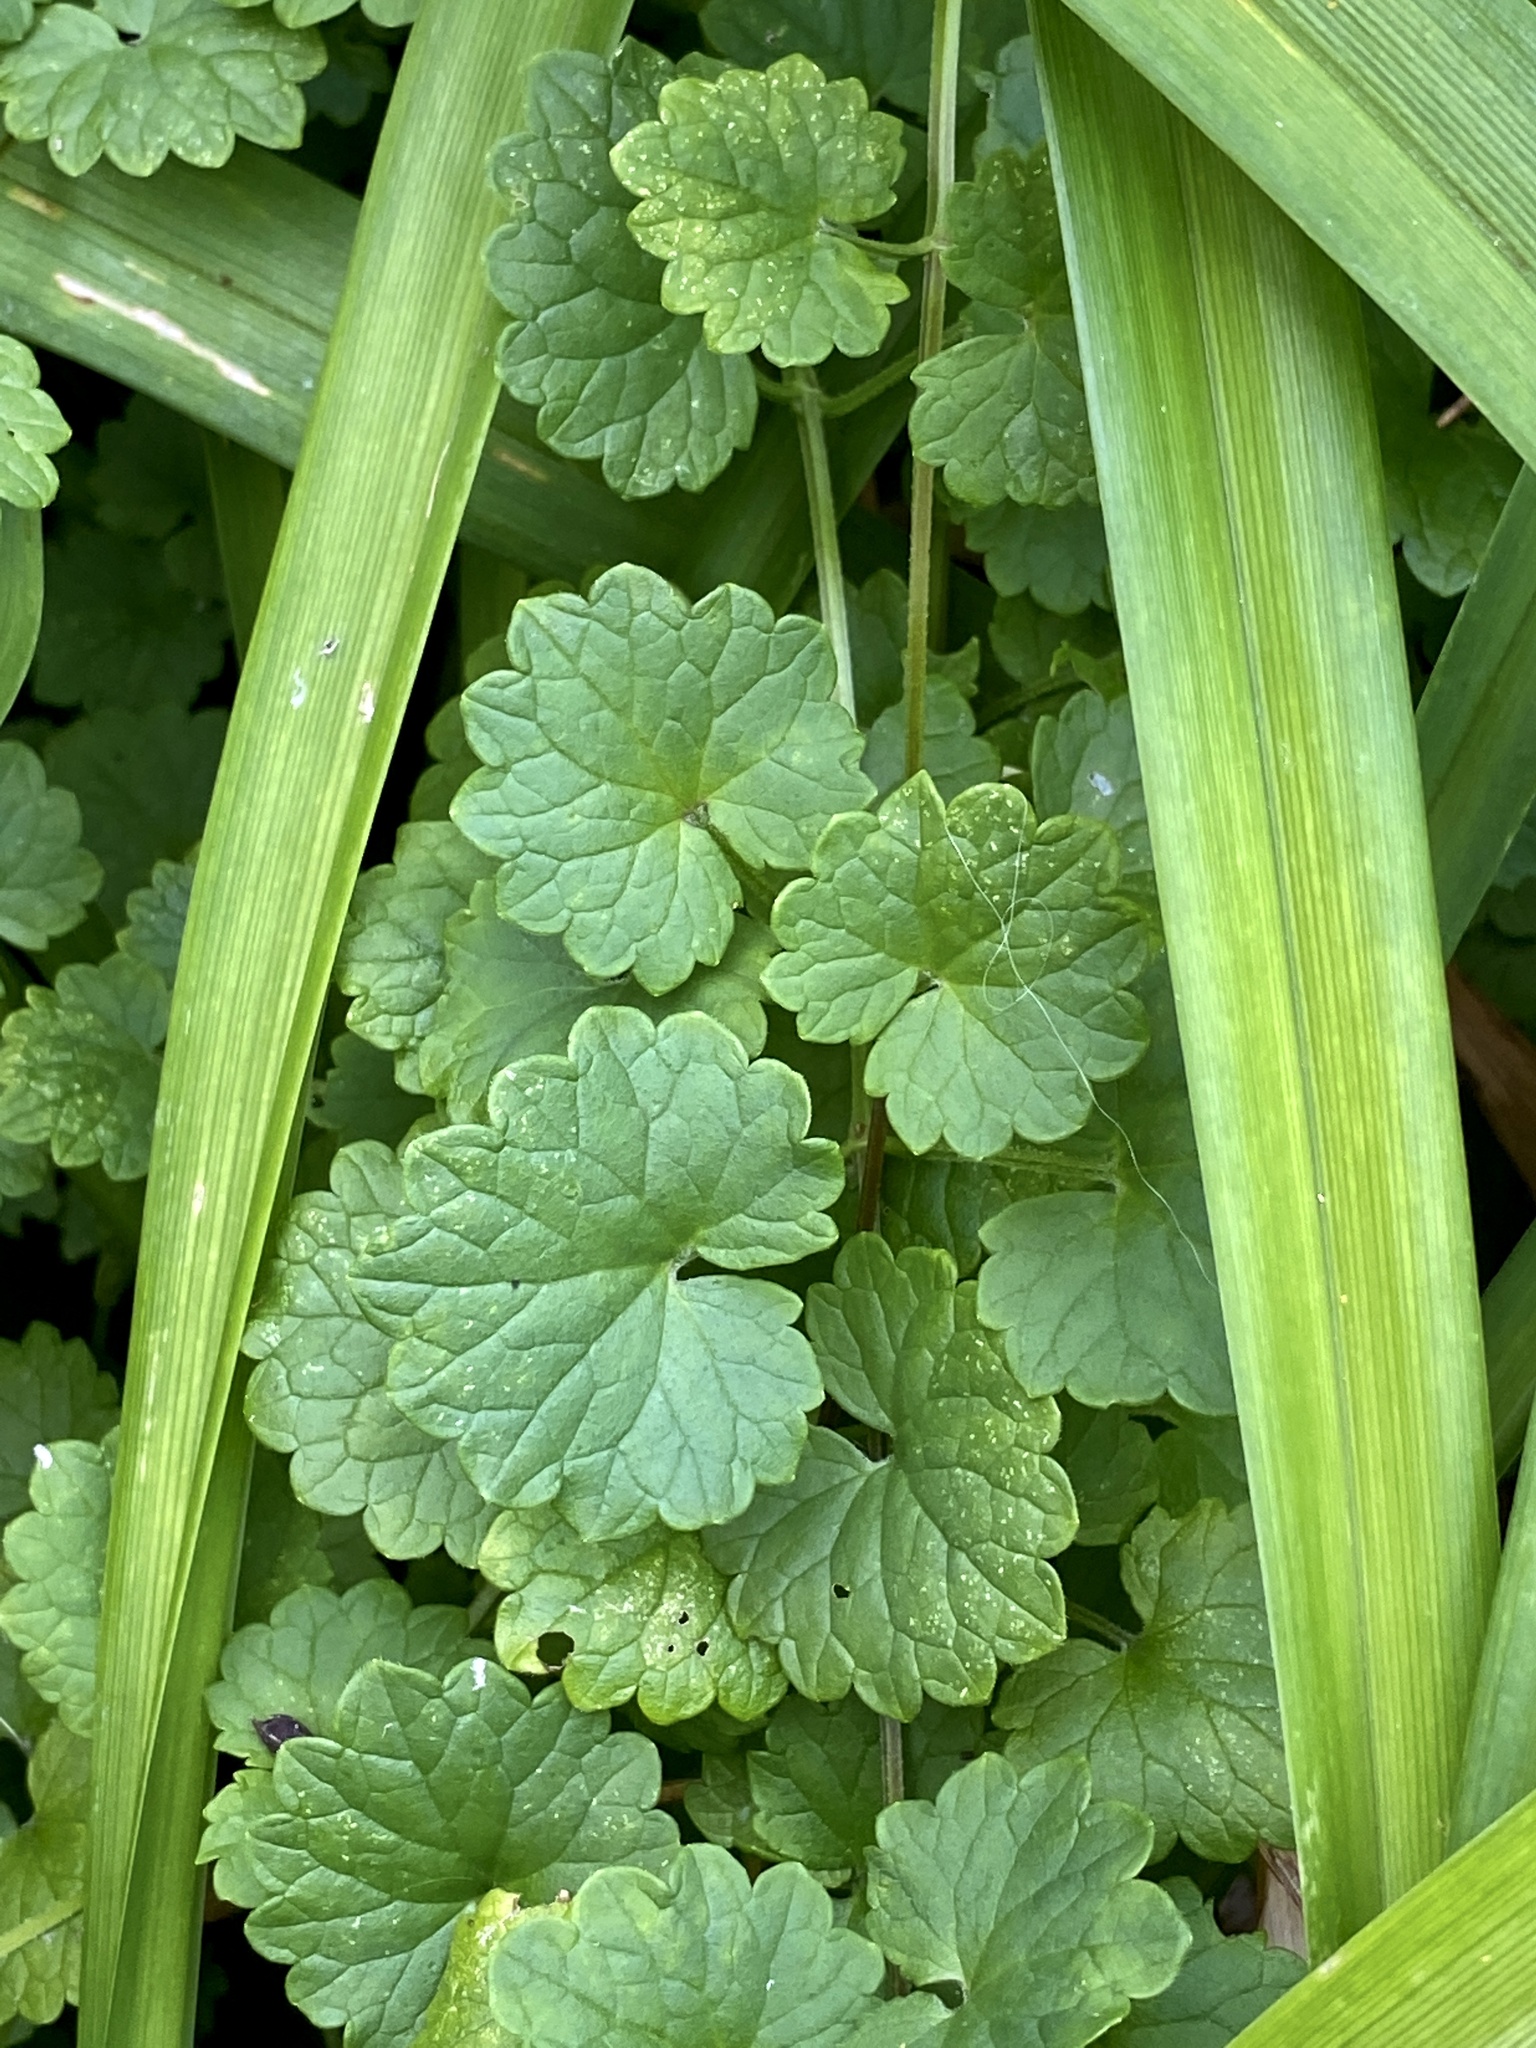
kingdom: Plantae
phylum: Tracheophyta
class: Magnoliopsida
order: Lamiales
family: Lamiaceae
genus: Glechoma
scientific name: Glechoma hederacea
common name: Ground ivy
